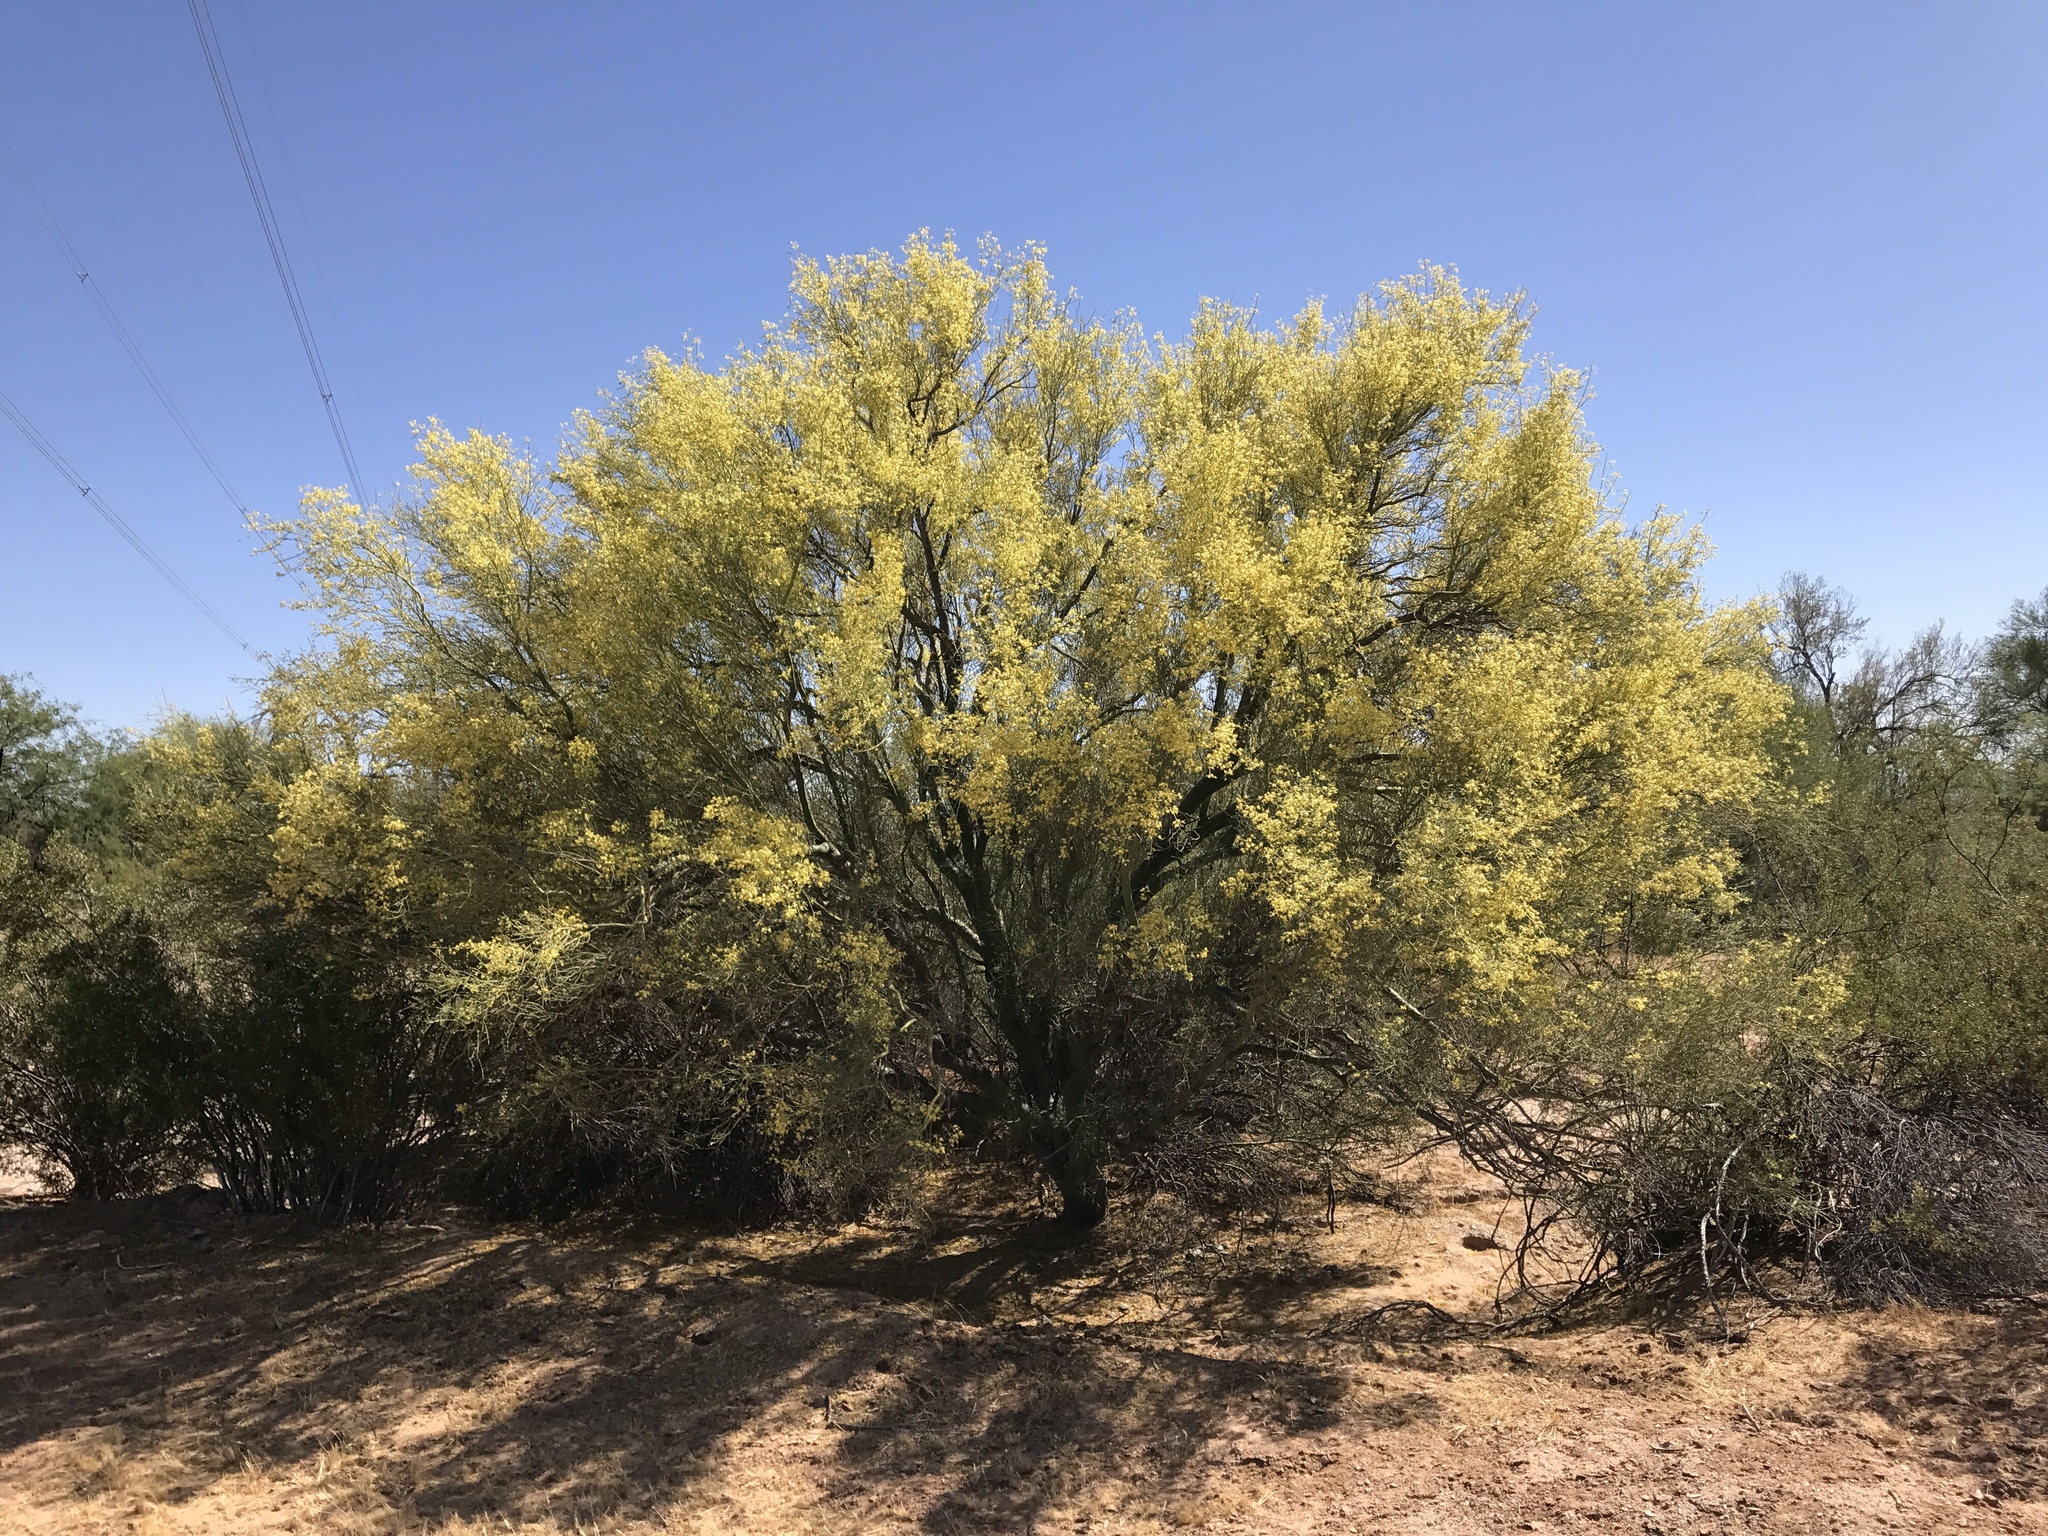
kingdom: Plantae
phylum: Tracheophyta
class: Magnoliopsida
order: Fabales
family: Fabaceae
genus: Parkinsonia
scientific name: Parkinsonia microphylla
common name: Yellow paloverde
